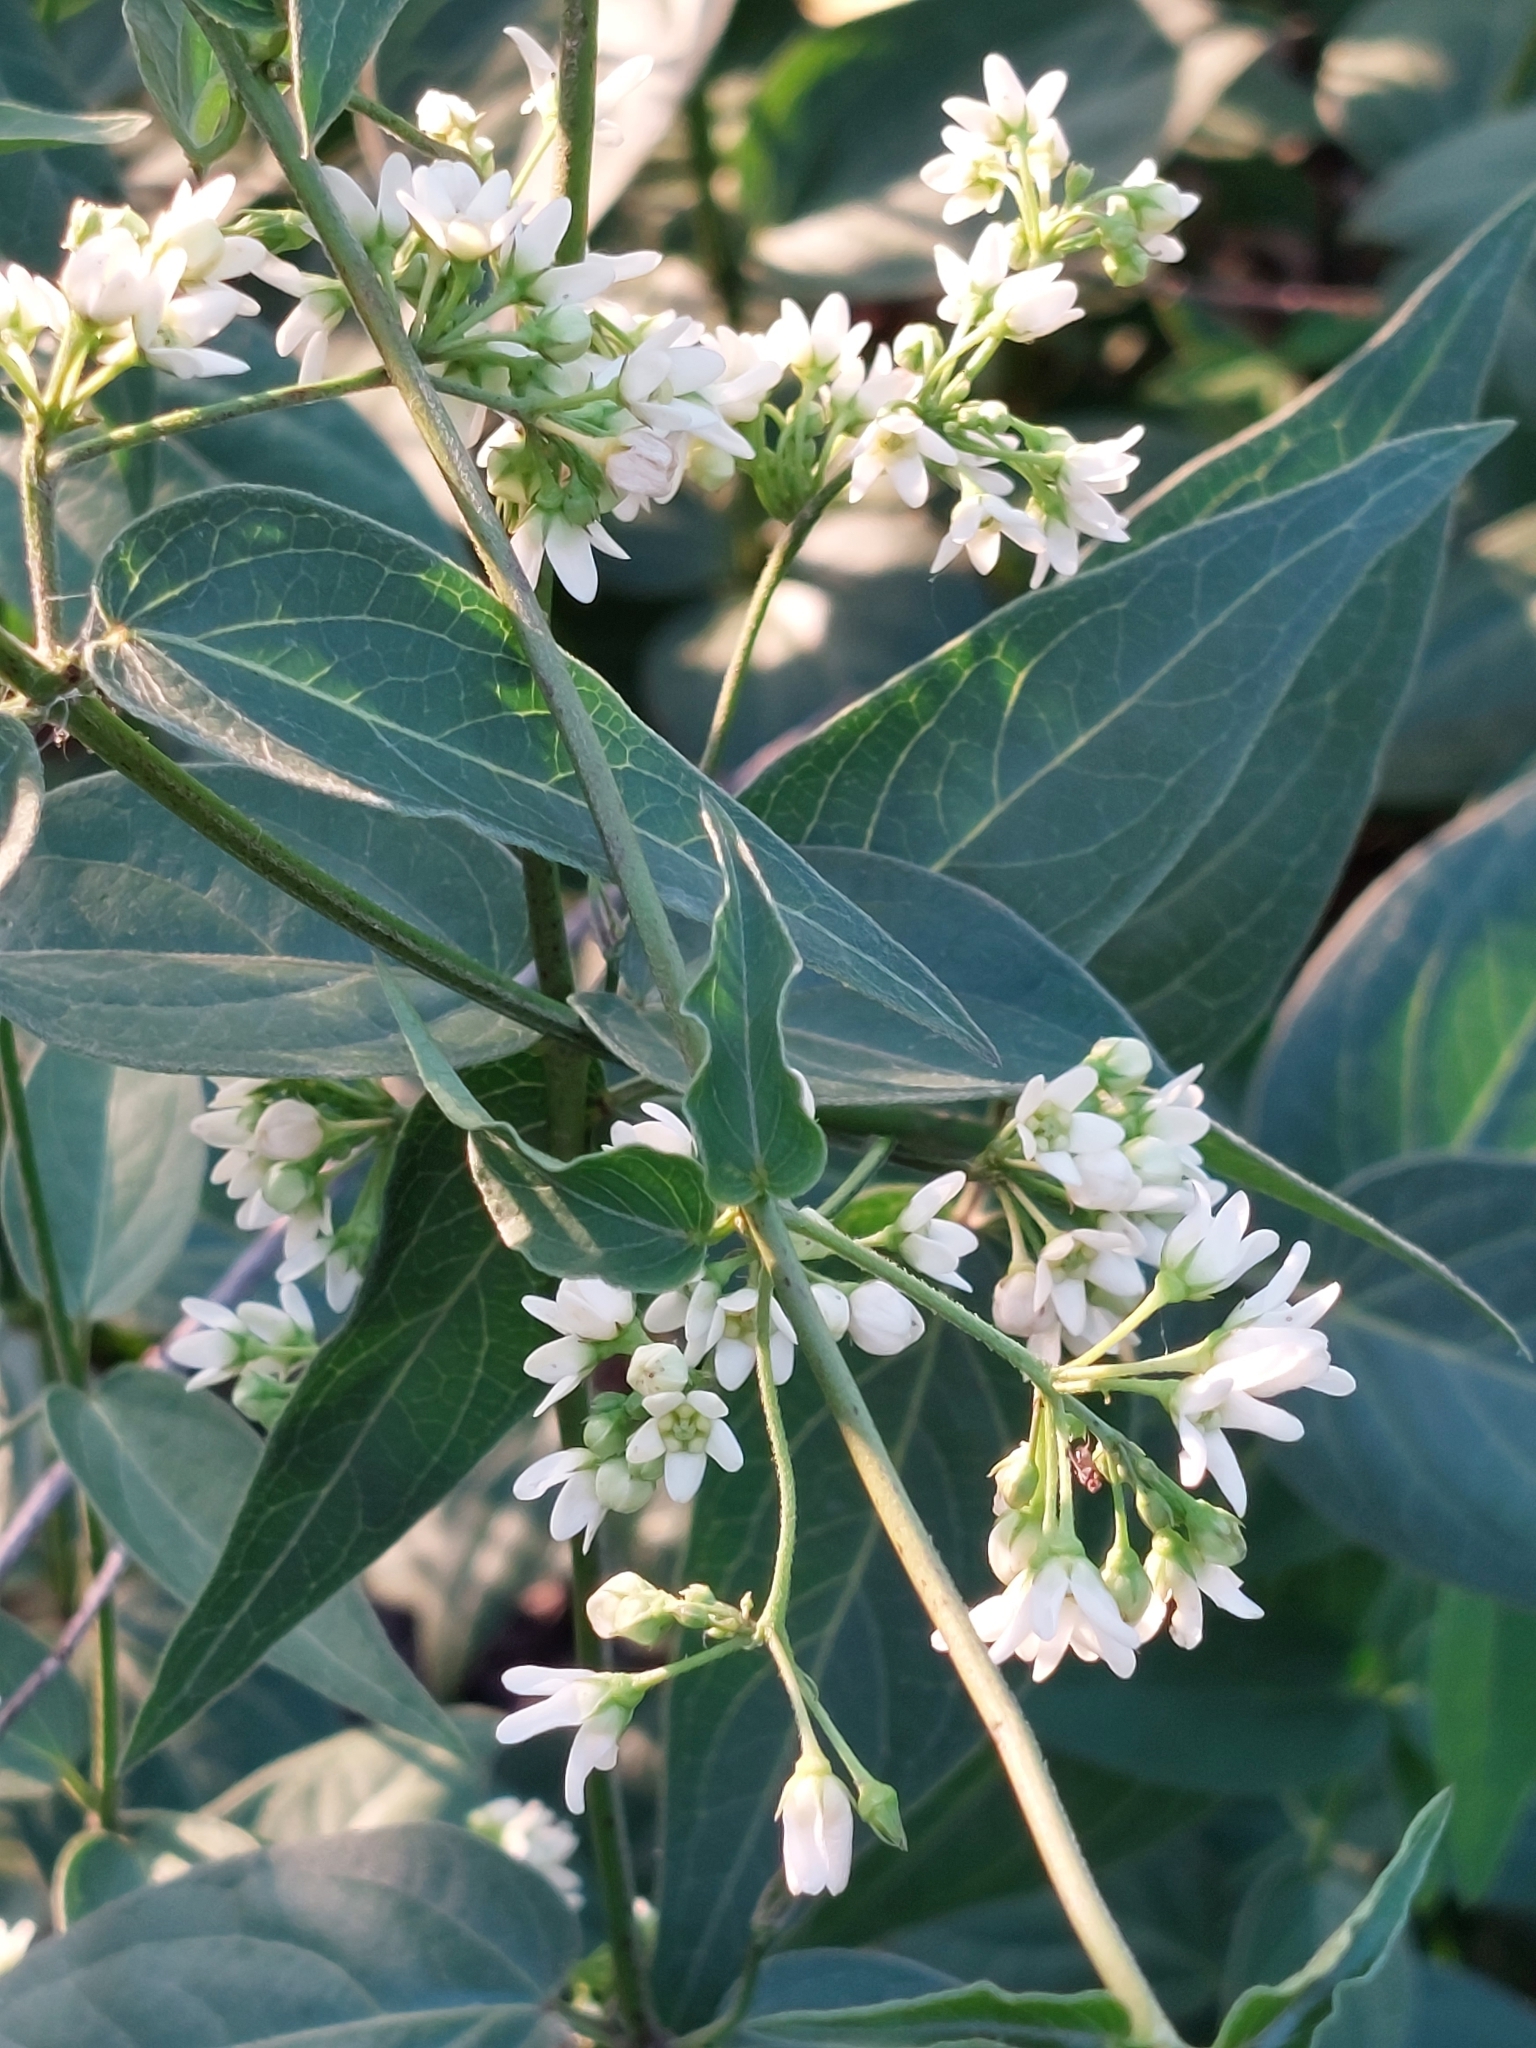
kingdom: Plantae
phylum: Tracheophyta
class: Magnoliopsida
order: Gentianales
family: Apocynaceae
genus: Vincetoxicum
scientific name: Vincetoxicum hirundinaria
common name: White swallowwort
